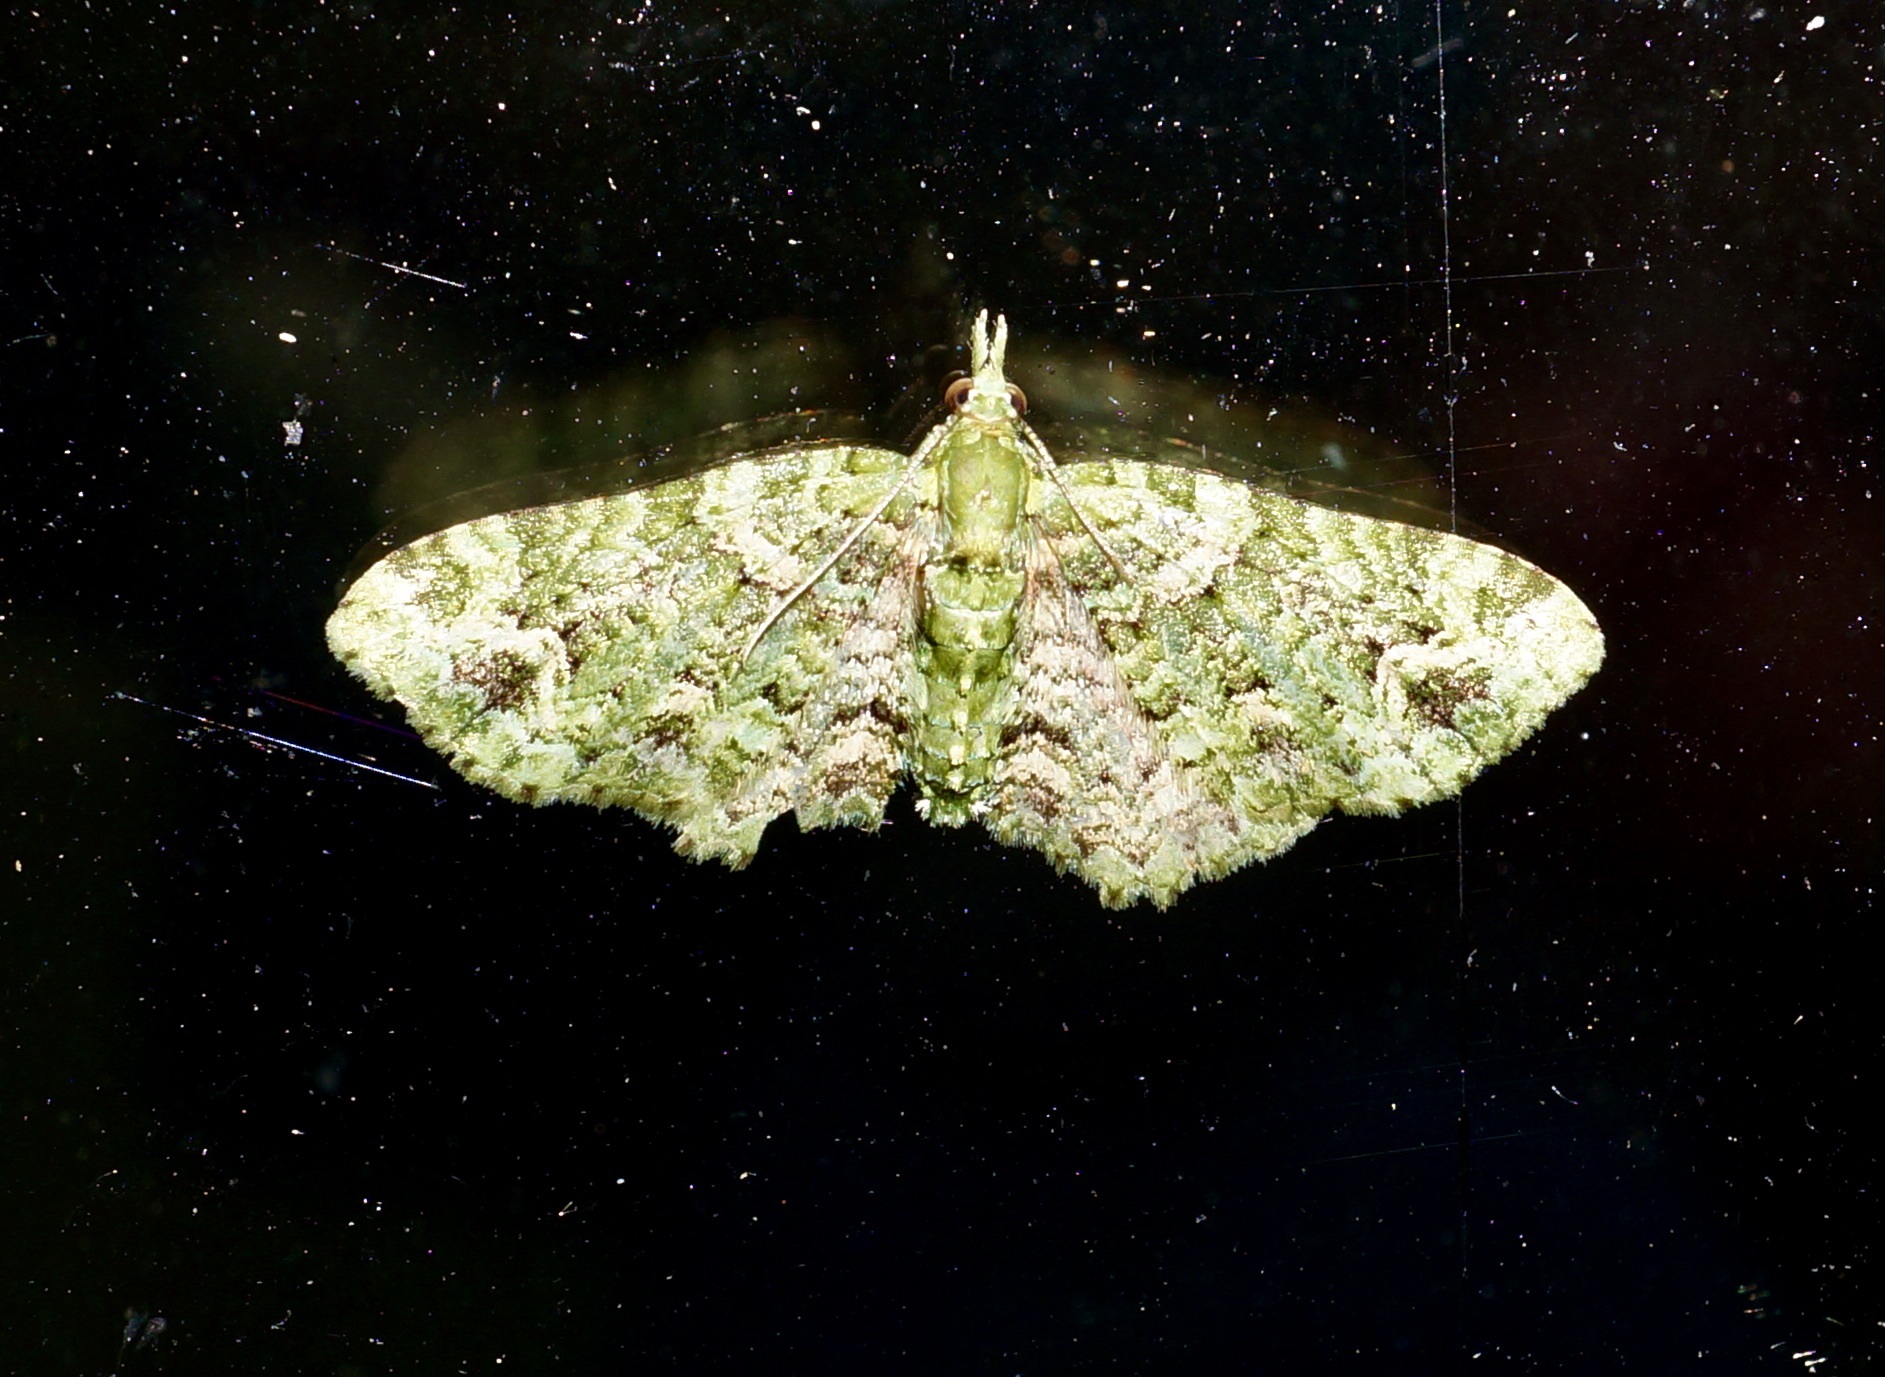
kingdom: Animalia
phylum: Arthropoda
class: Insecta
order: Lepidoptera
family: Geometridae
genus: Pasiphila
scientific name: Pasiphila muscosata
